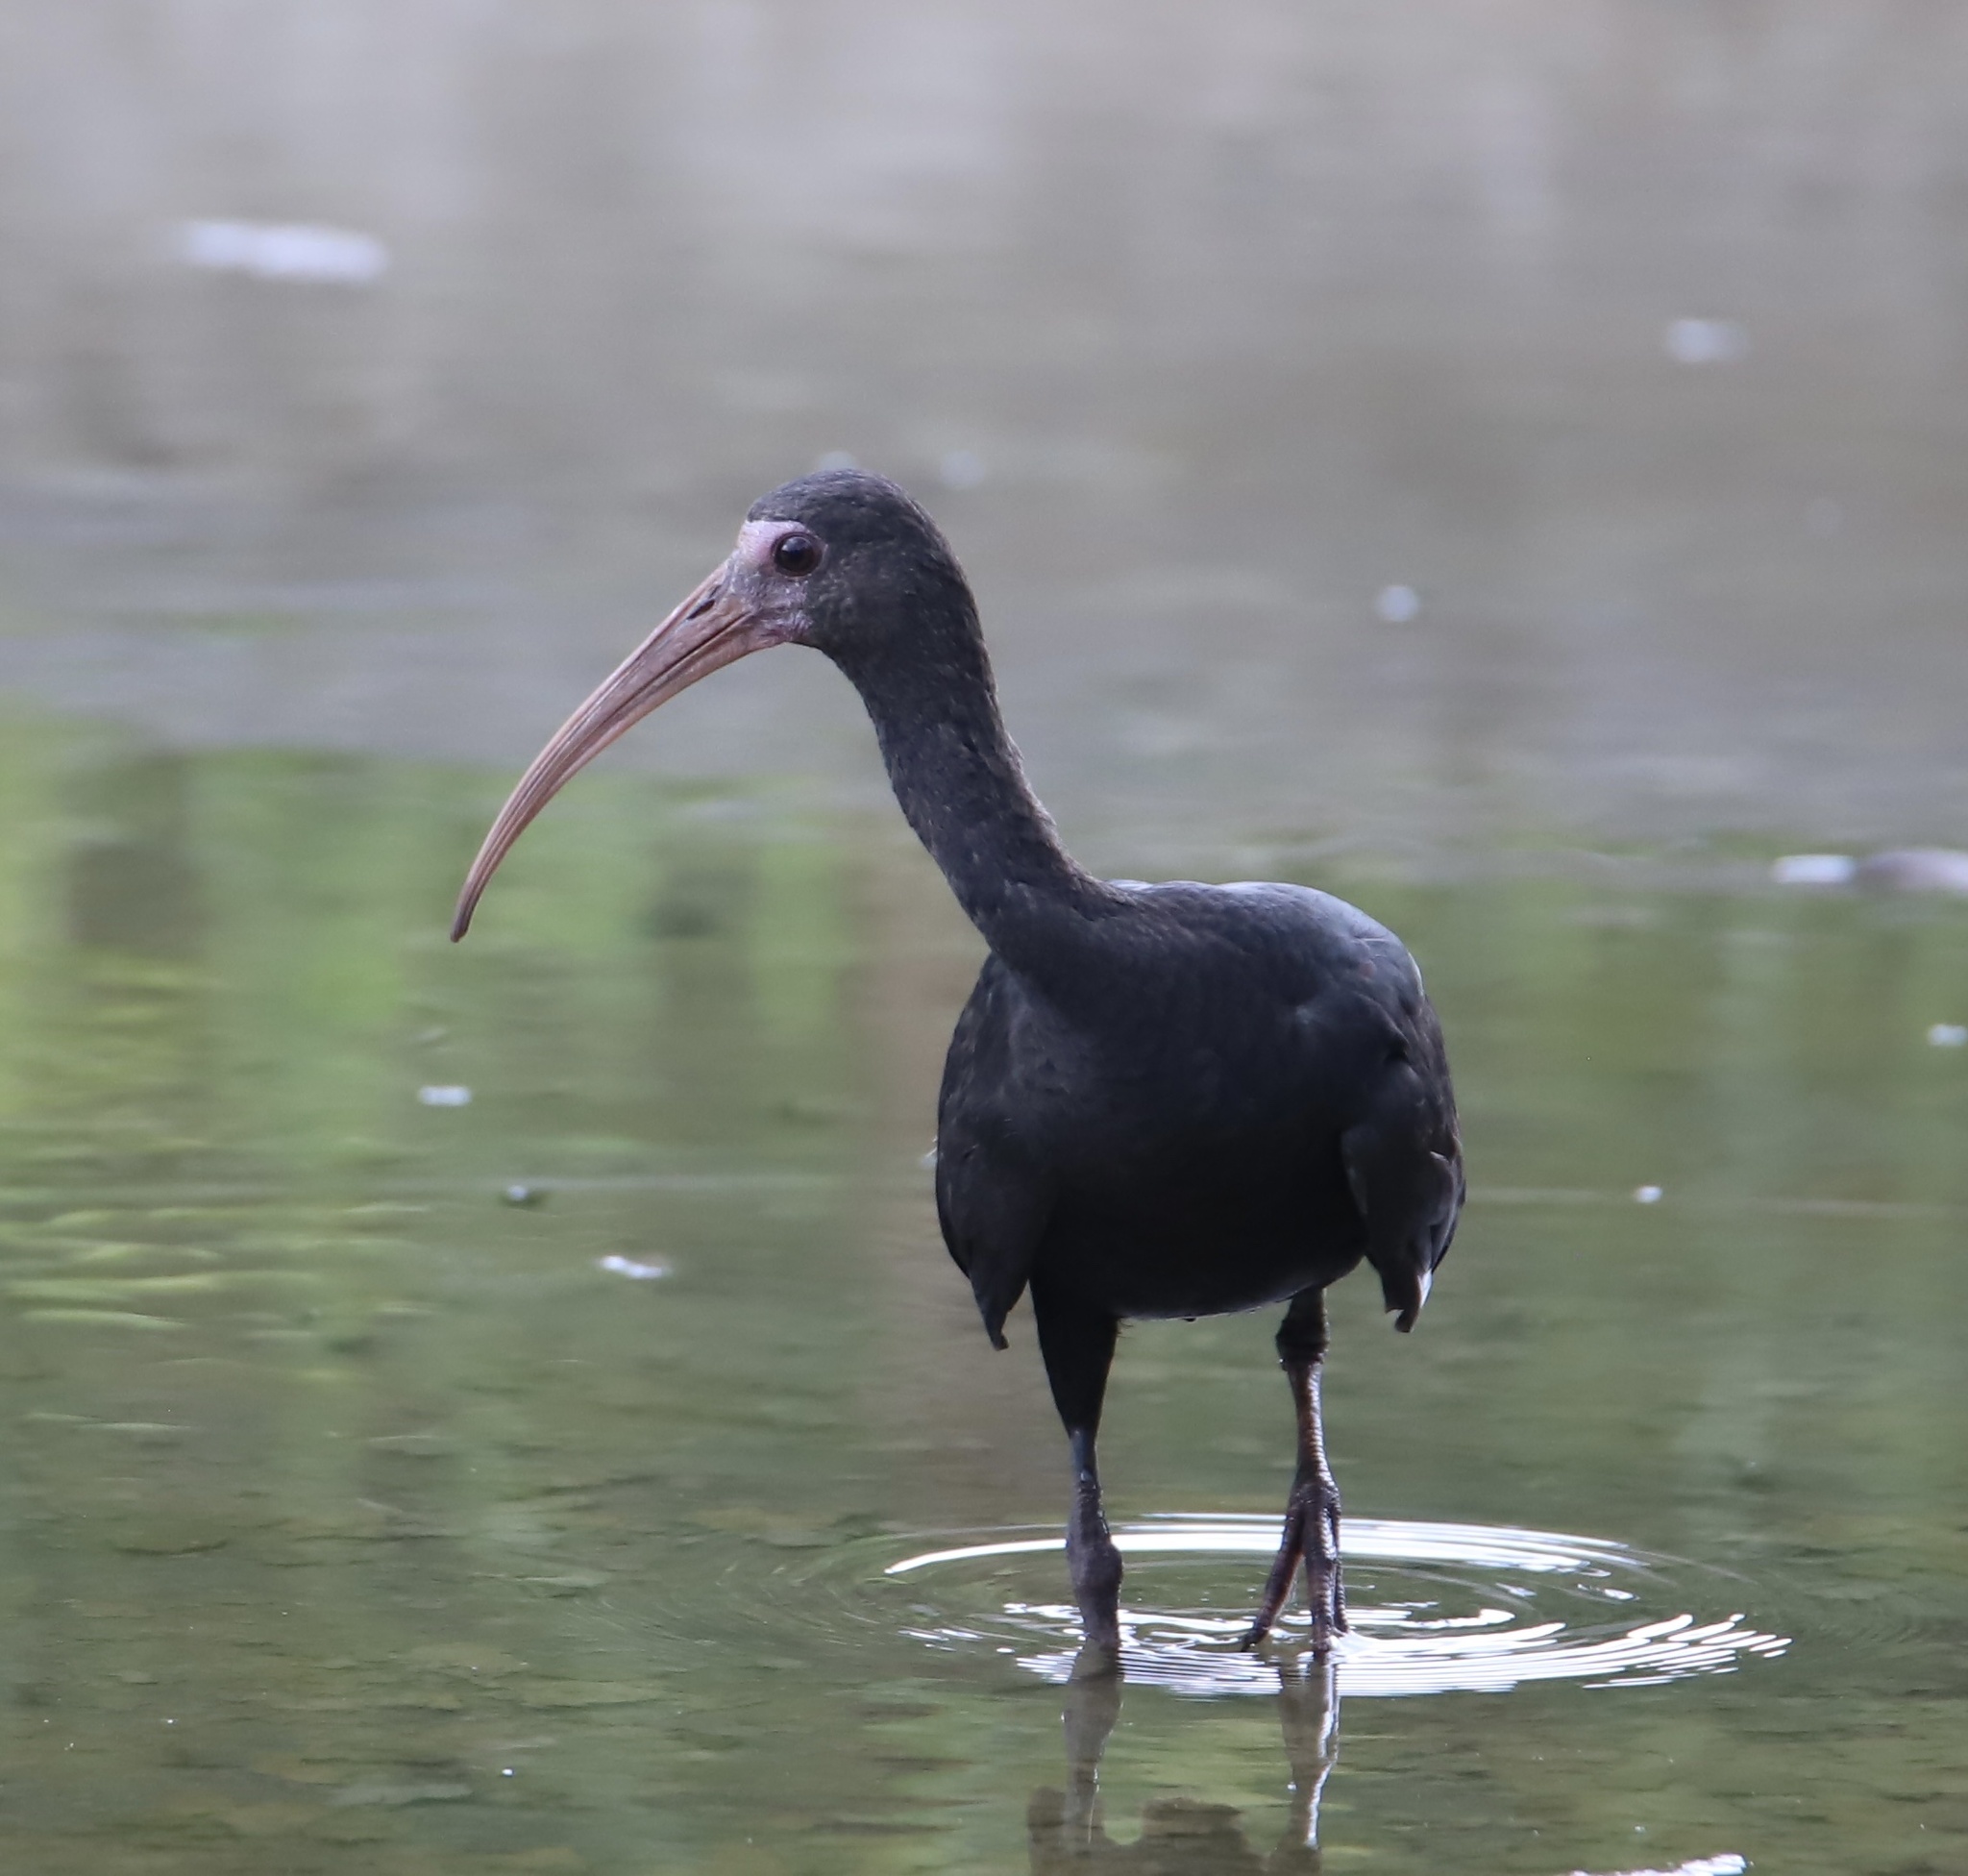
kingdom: Animalia
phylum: Chordata
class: Aves
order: Pelecaniformes
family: Threskiornithidae
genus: Phimosus
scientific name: Phimosus infuscatus
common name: Bare-faced ibis
